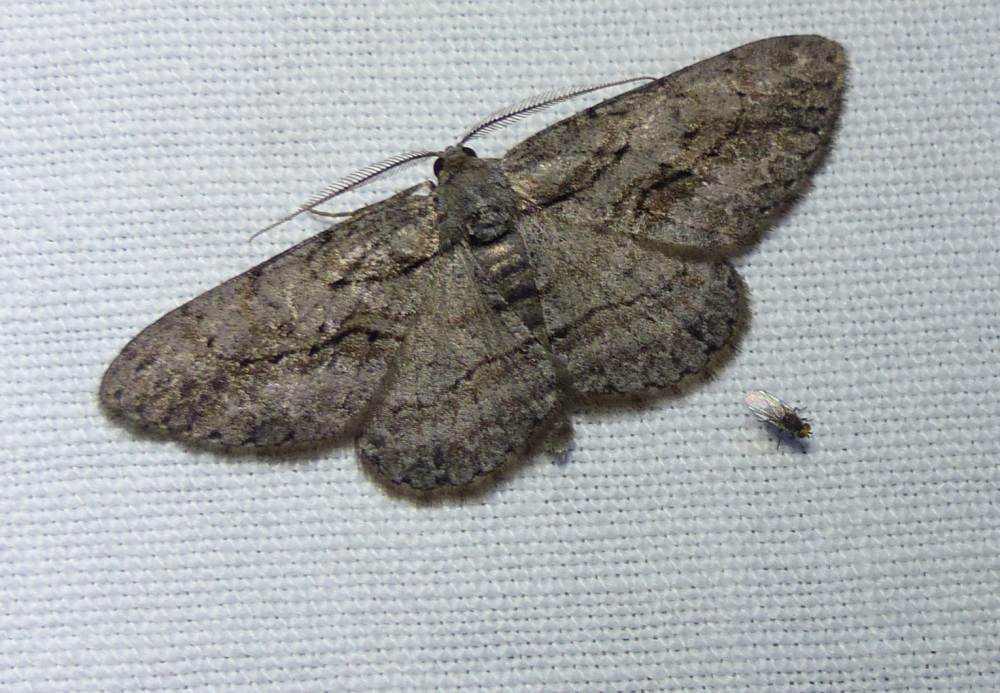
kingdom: Animalia
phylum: Arthropoda
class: Insecta
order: Lepidoptera
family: Geometridae
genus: Anavitrinella
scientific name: Anavitrinella pampinaria
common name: Common gray
